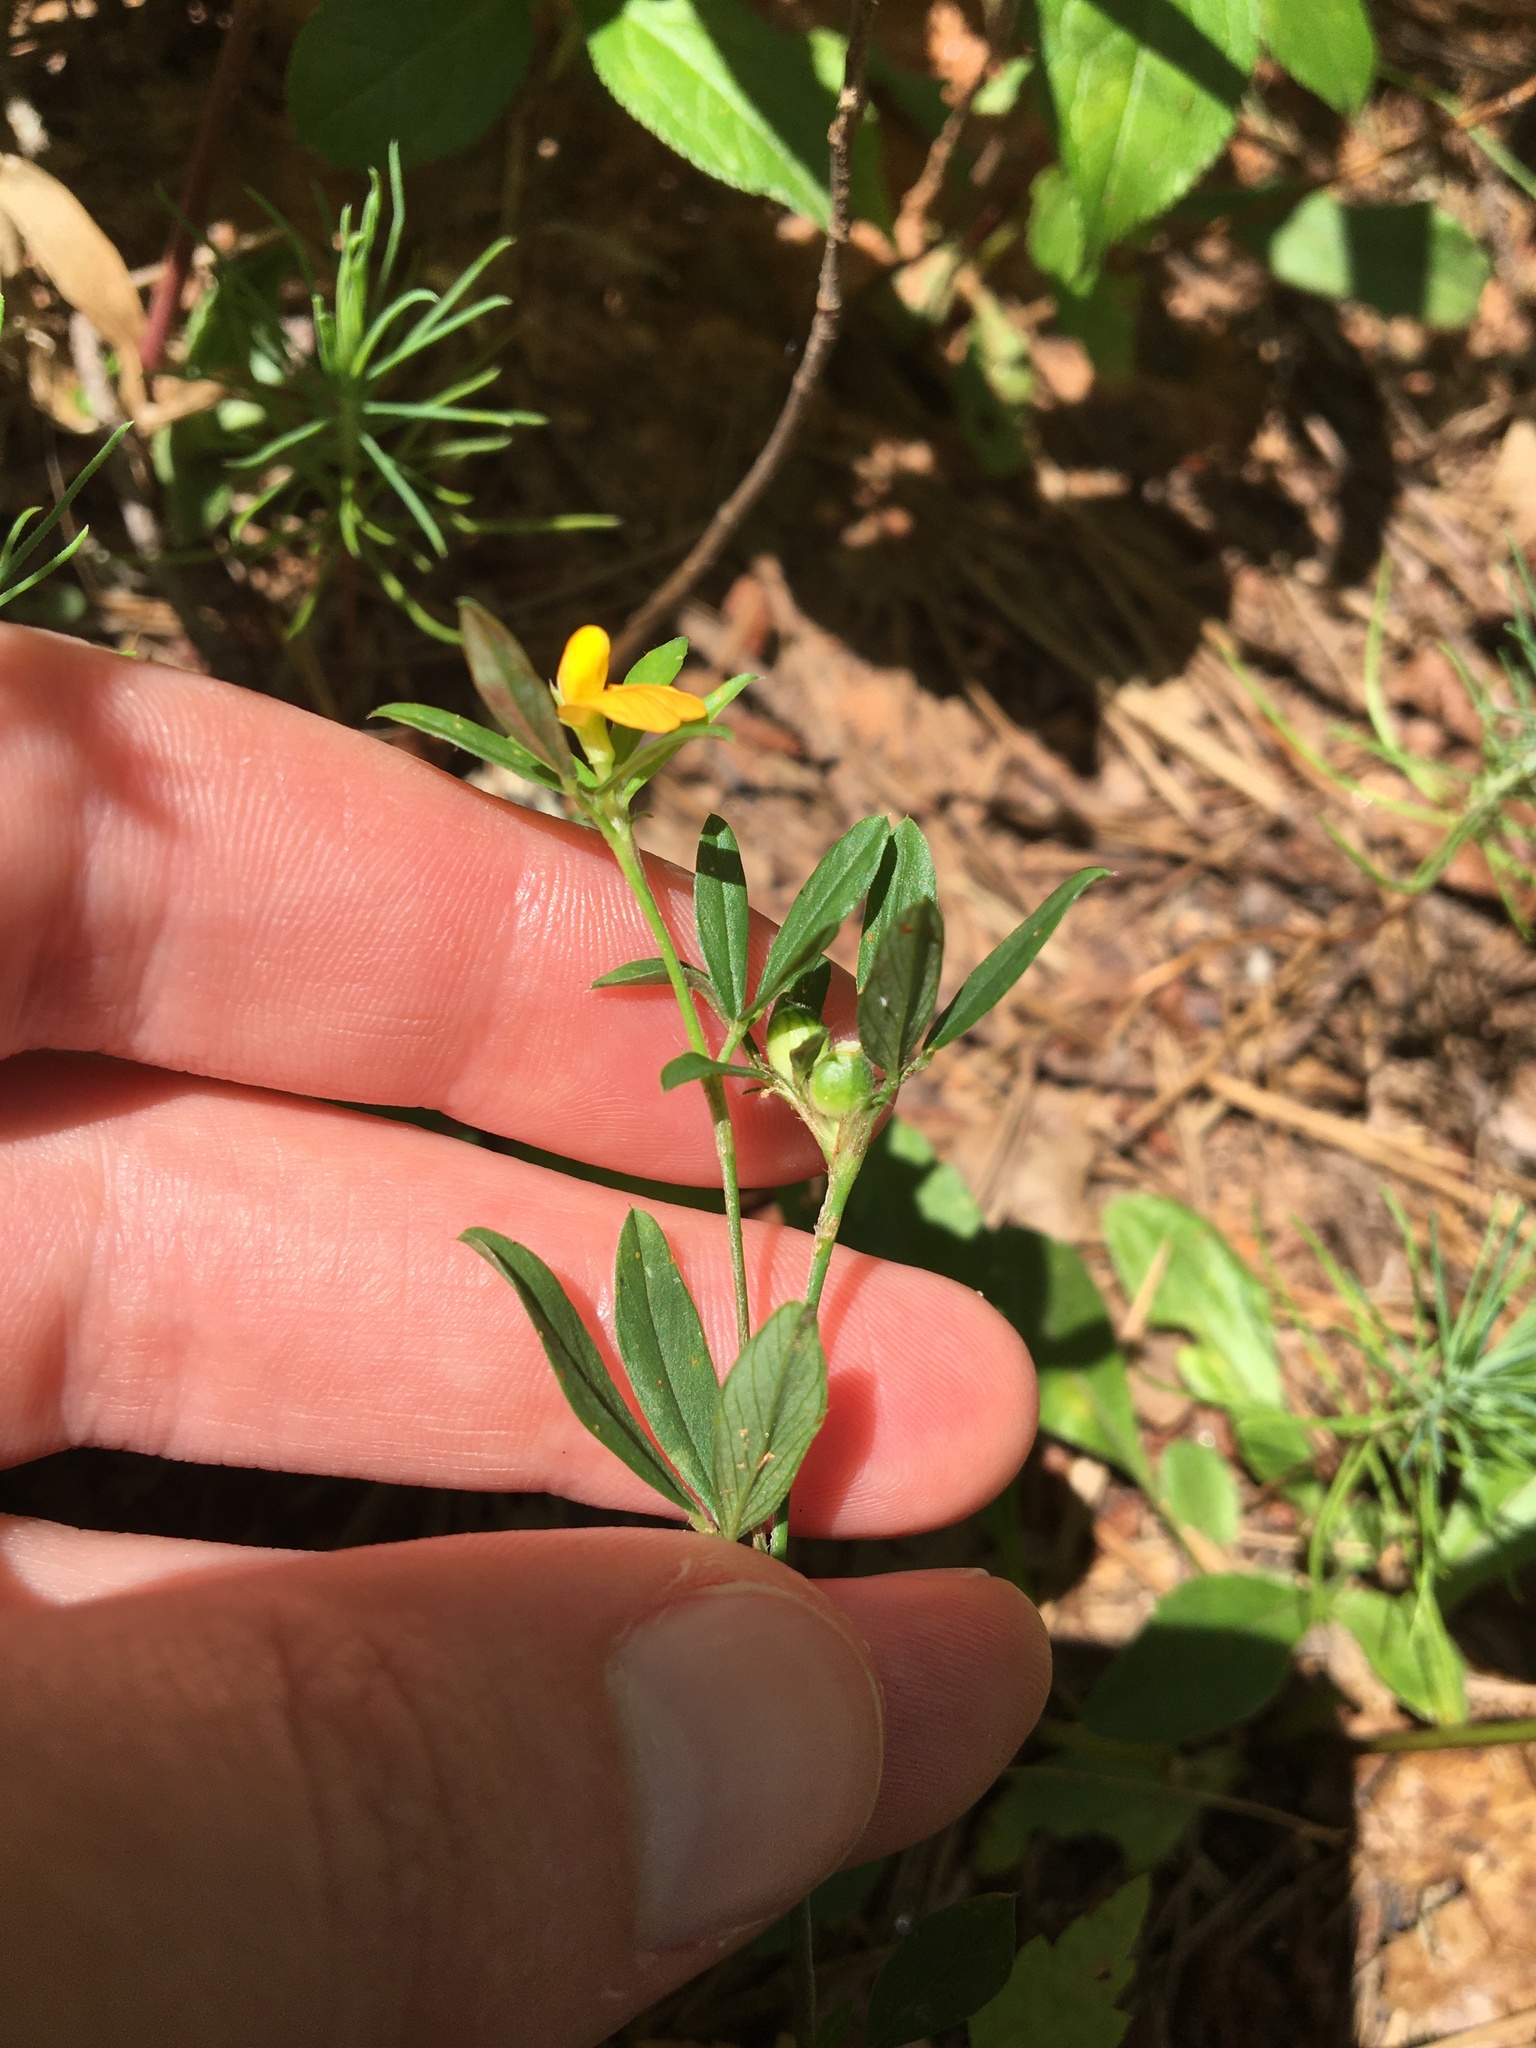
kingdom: Plantae
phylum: Tracheophyta
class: Magnoliopsida
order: Fabales
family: Fabaceae
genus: Stylosanthes
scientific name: Stylosanthes biflora
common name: Two-flower pencil-flower
